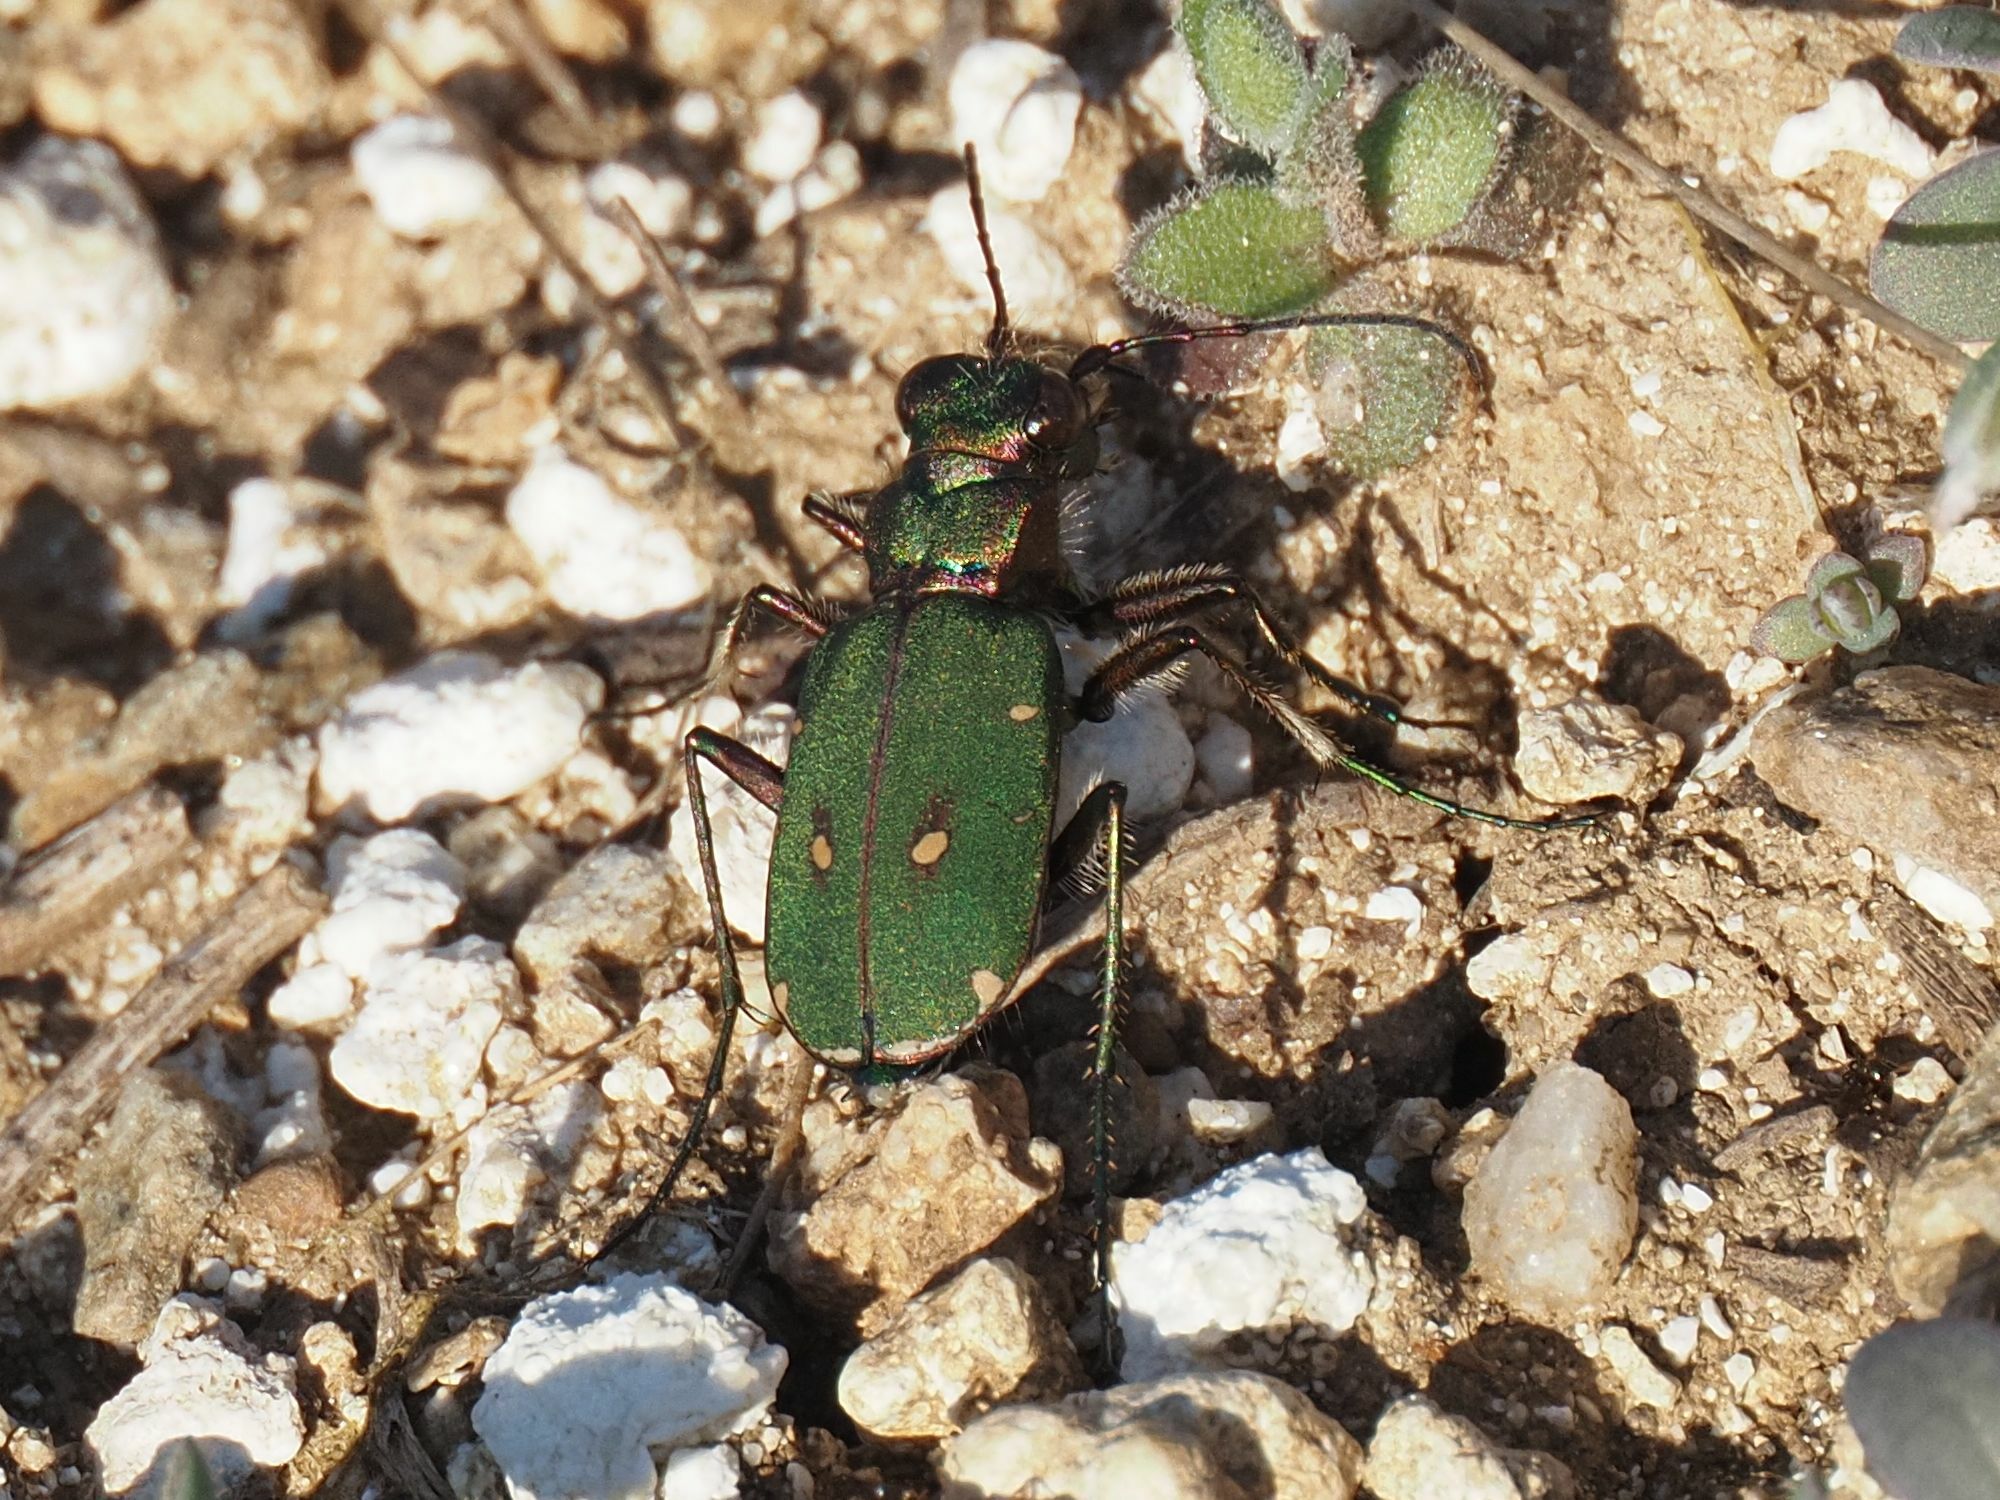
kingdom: Animalia
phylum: Arthropoda
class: Insecta
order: Coleoptera
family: Carabidae
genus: Cicindela
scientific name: Cicindela campestris
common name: Common tiger beetle
